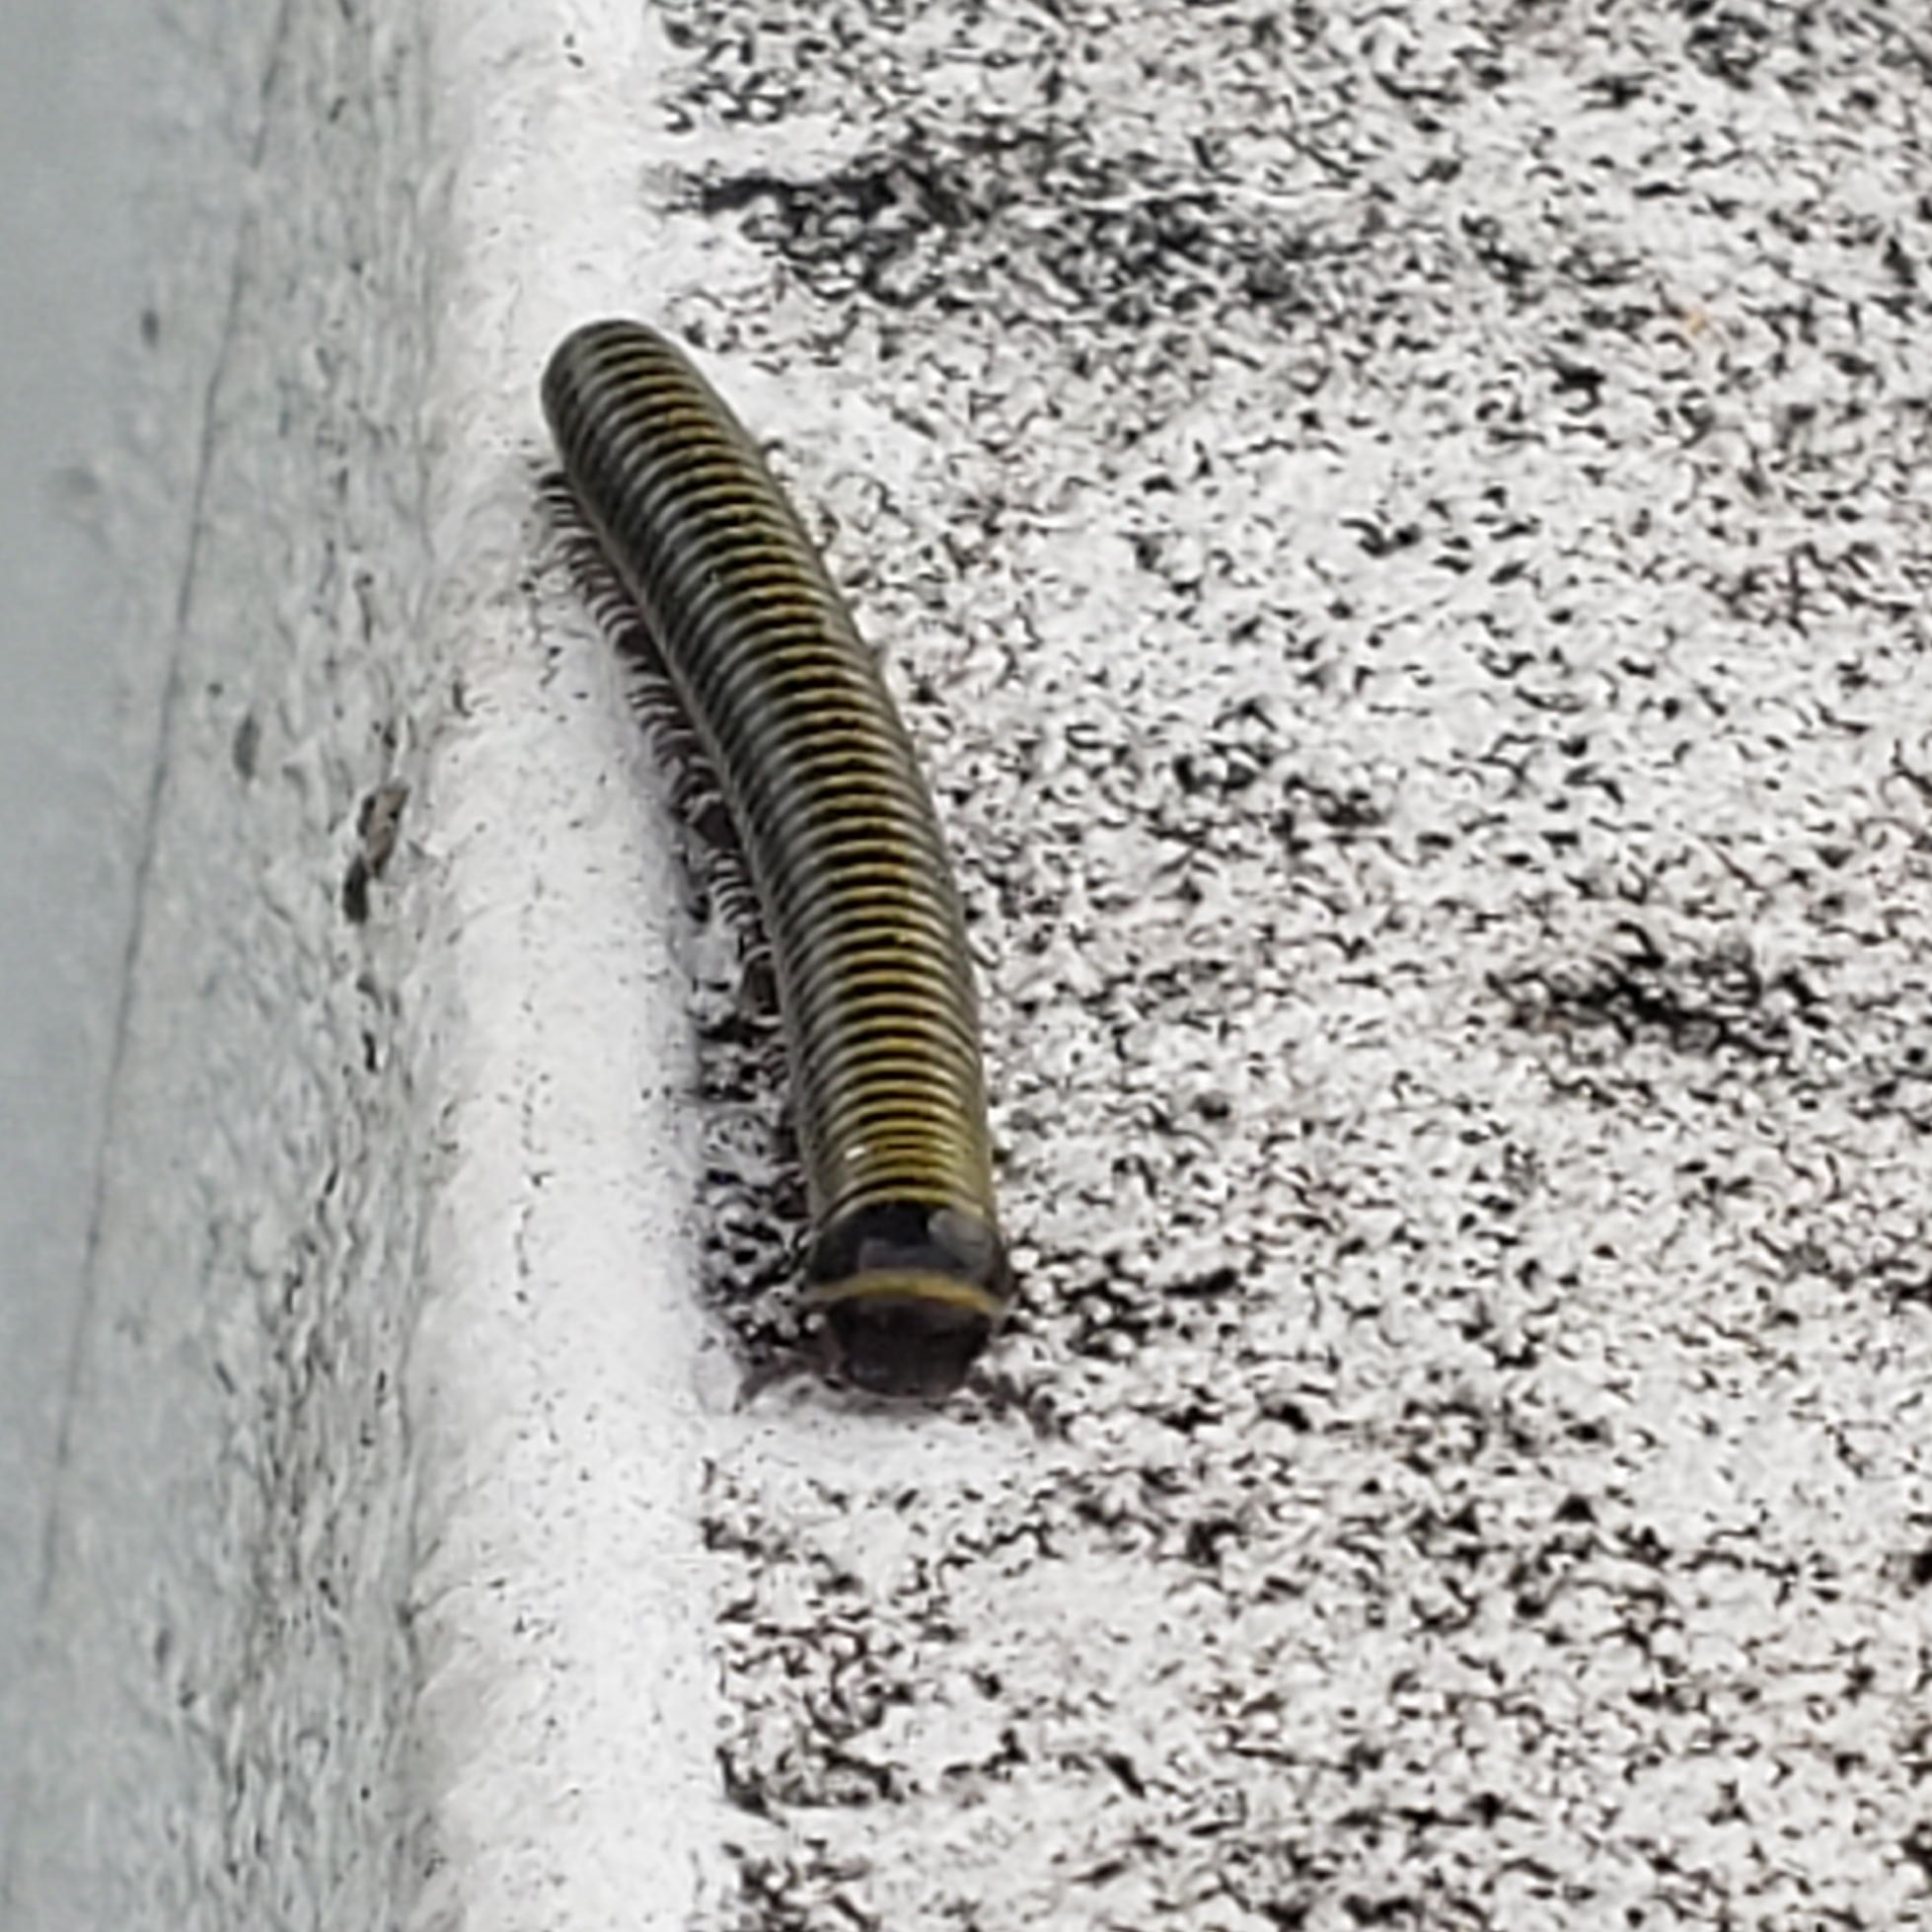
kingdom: Animalia
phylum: Arthropoda
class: Diplopoda
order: Spirobolida
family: Rhinocricidae
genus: Anadenobolus
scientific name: Anadenobolus monilicornis
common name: Caribbean millipede
